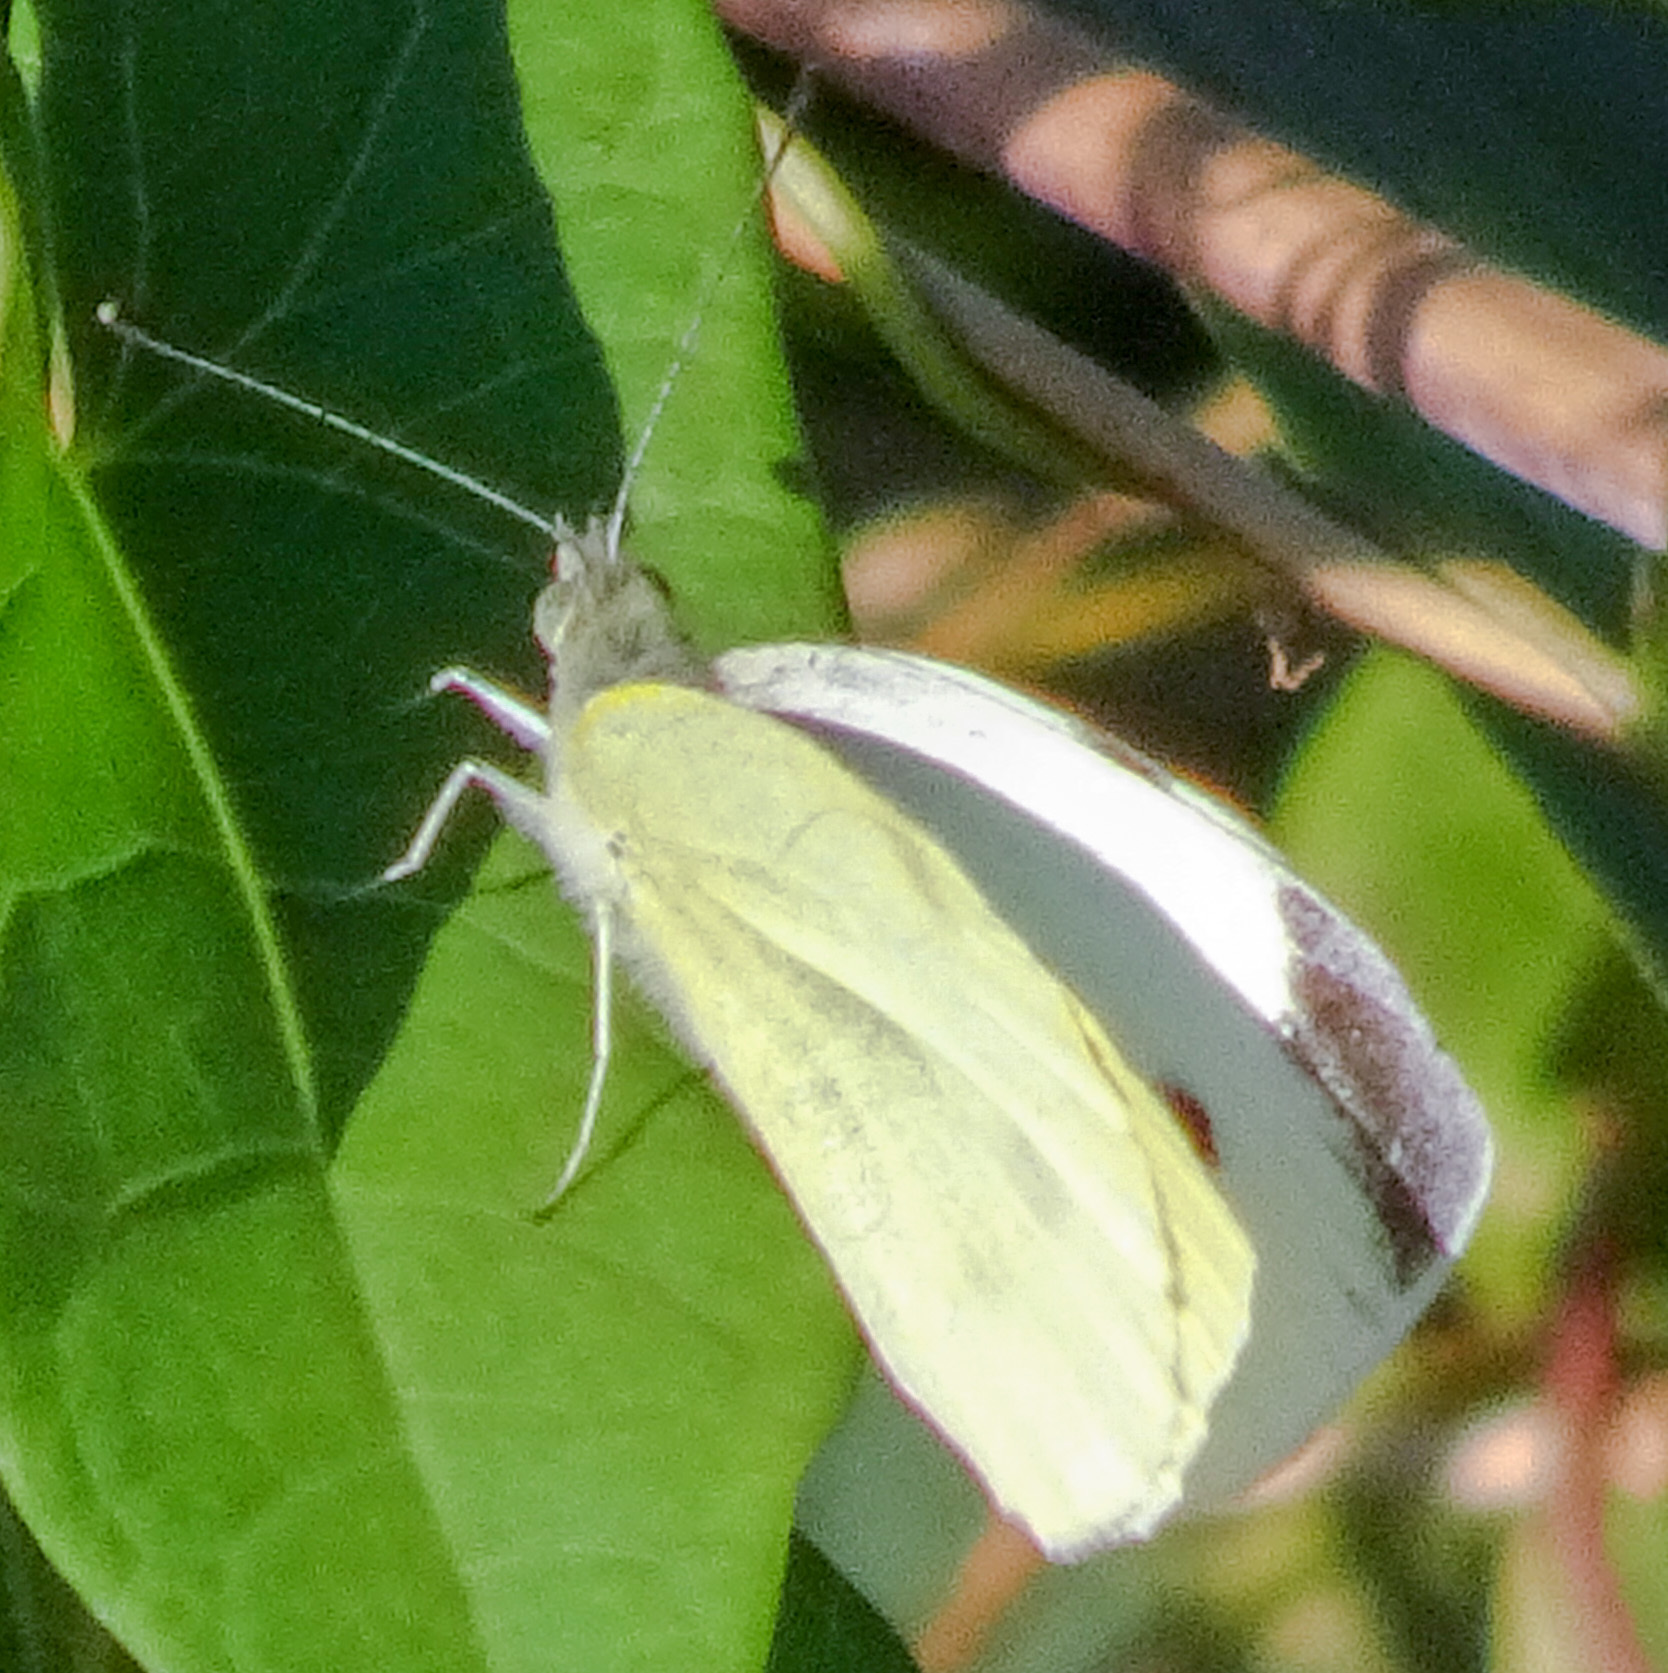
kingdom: Animalia
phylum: Arthropoda
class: Insecta
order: Lepidoptera
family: Pieridae
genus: Pieris
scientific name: Pieris rapae
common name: Small white
